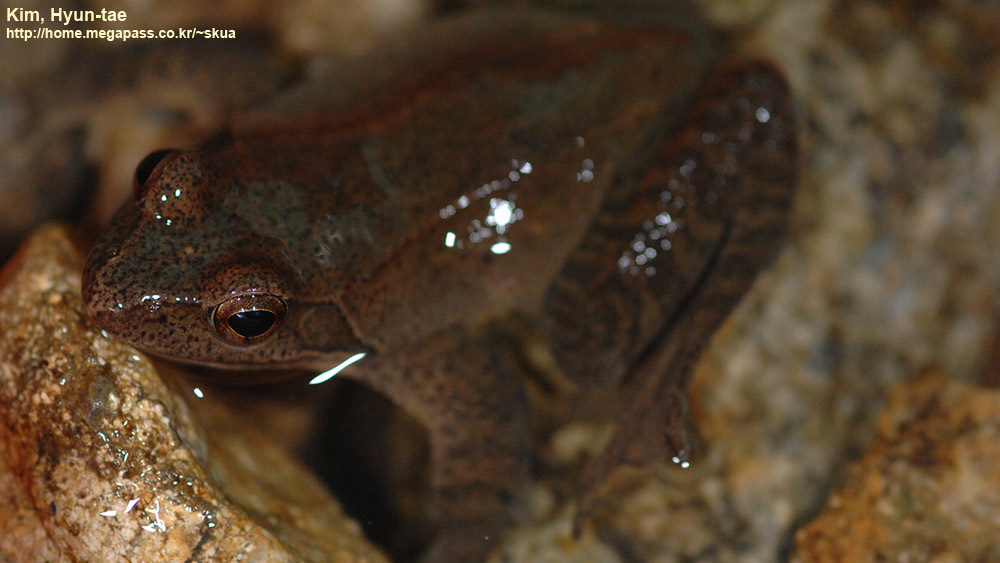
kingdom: Animalia
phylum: Chordata
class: Amphibia
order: Anura
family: Ranidae
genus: Rana
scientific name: Rana huanrenensis
